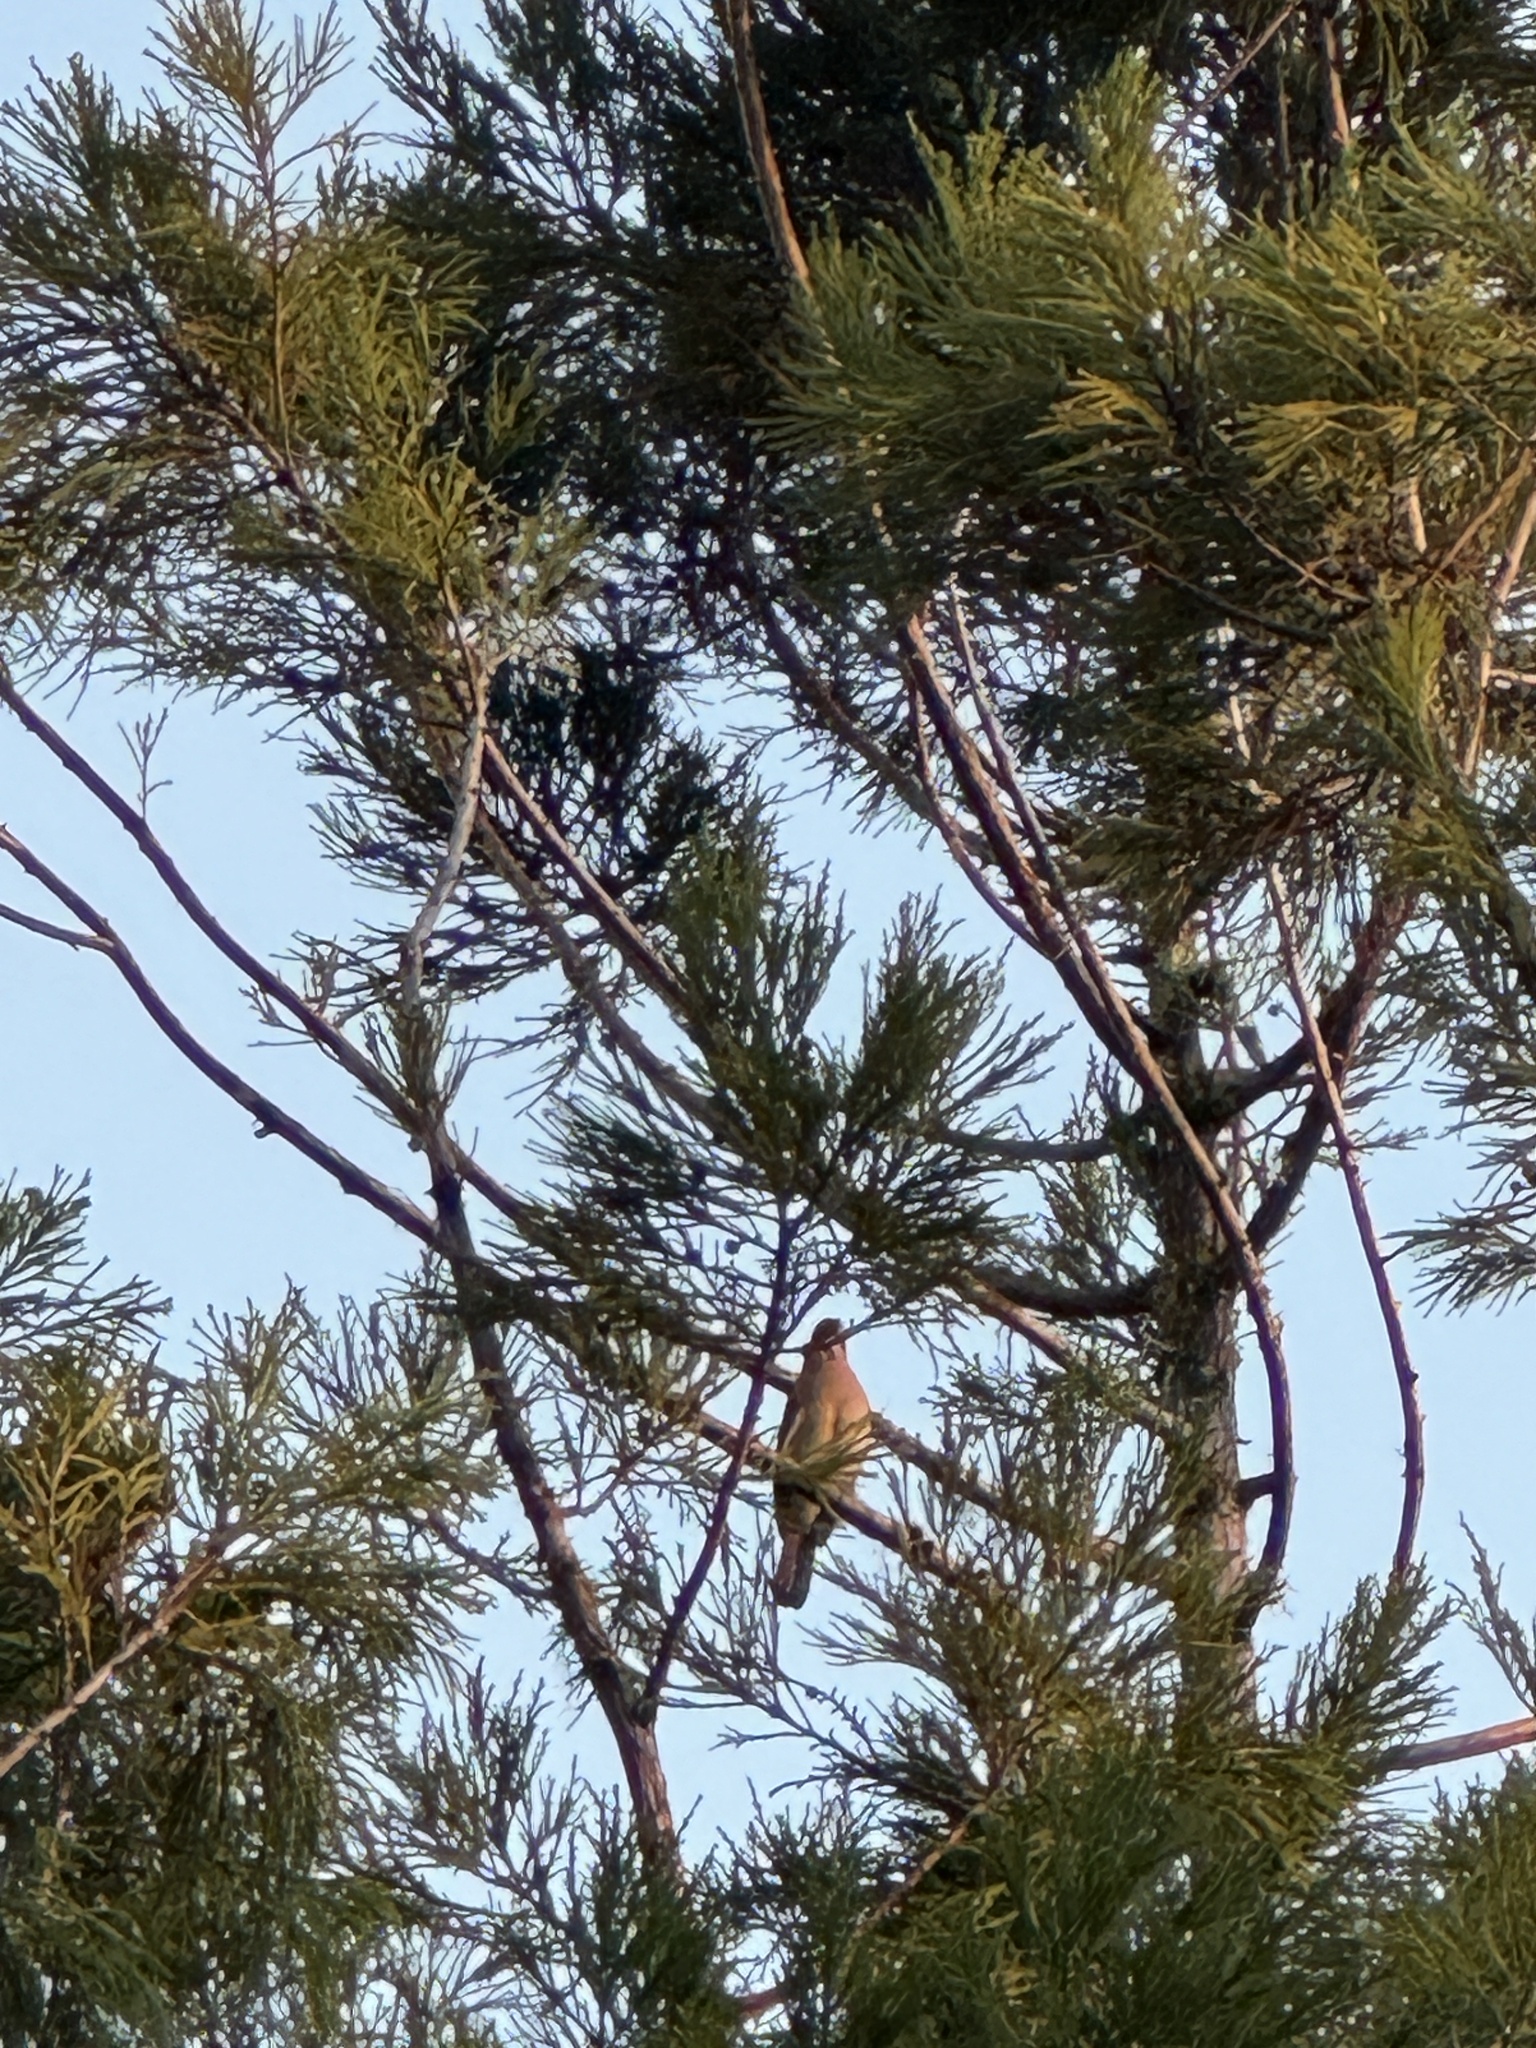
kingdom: Animalia
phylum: Chordata
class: Aves
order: Passeriformes
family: Corvidae
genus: Garrulus
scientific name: Garrulus glandarius
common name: Eurasian jay
